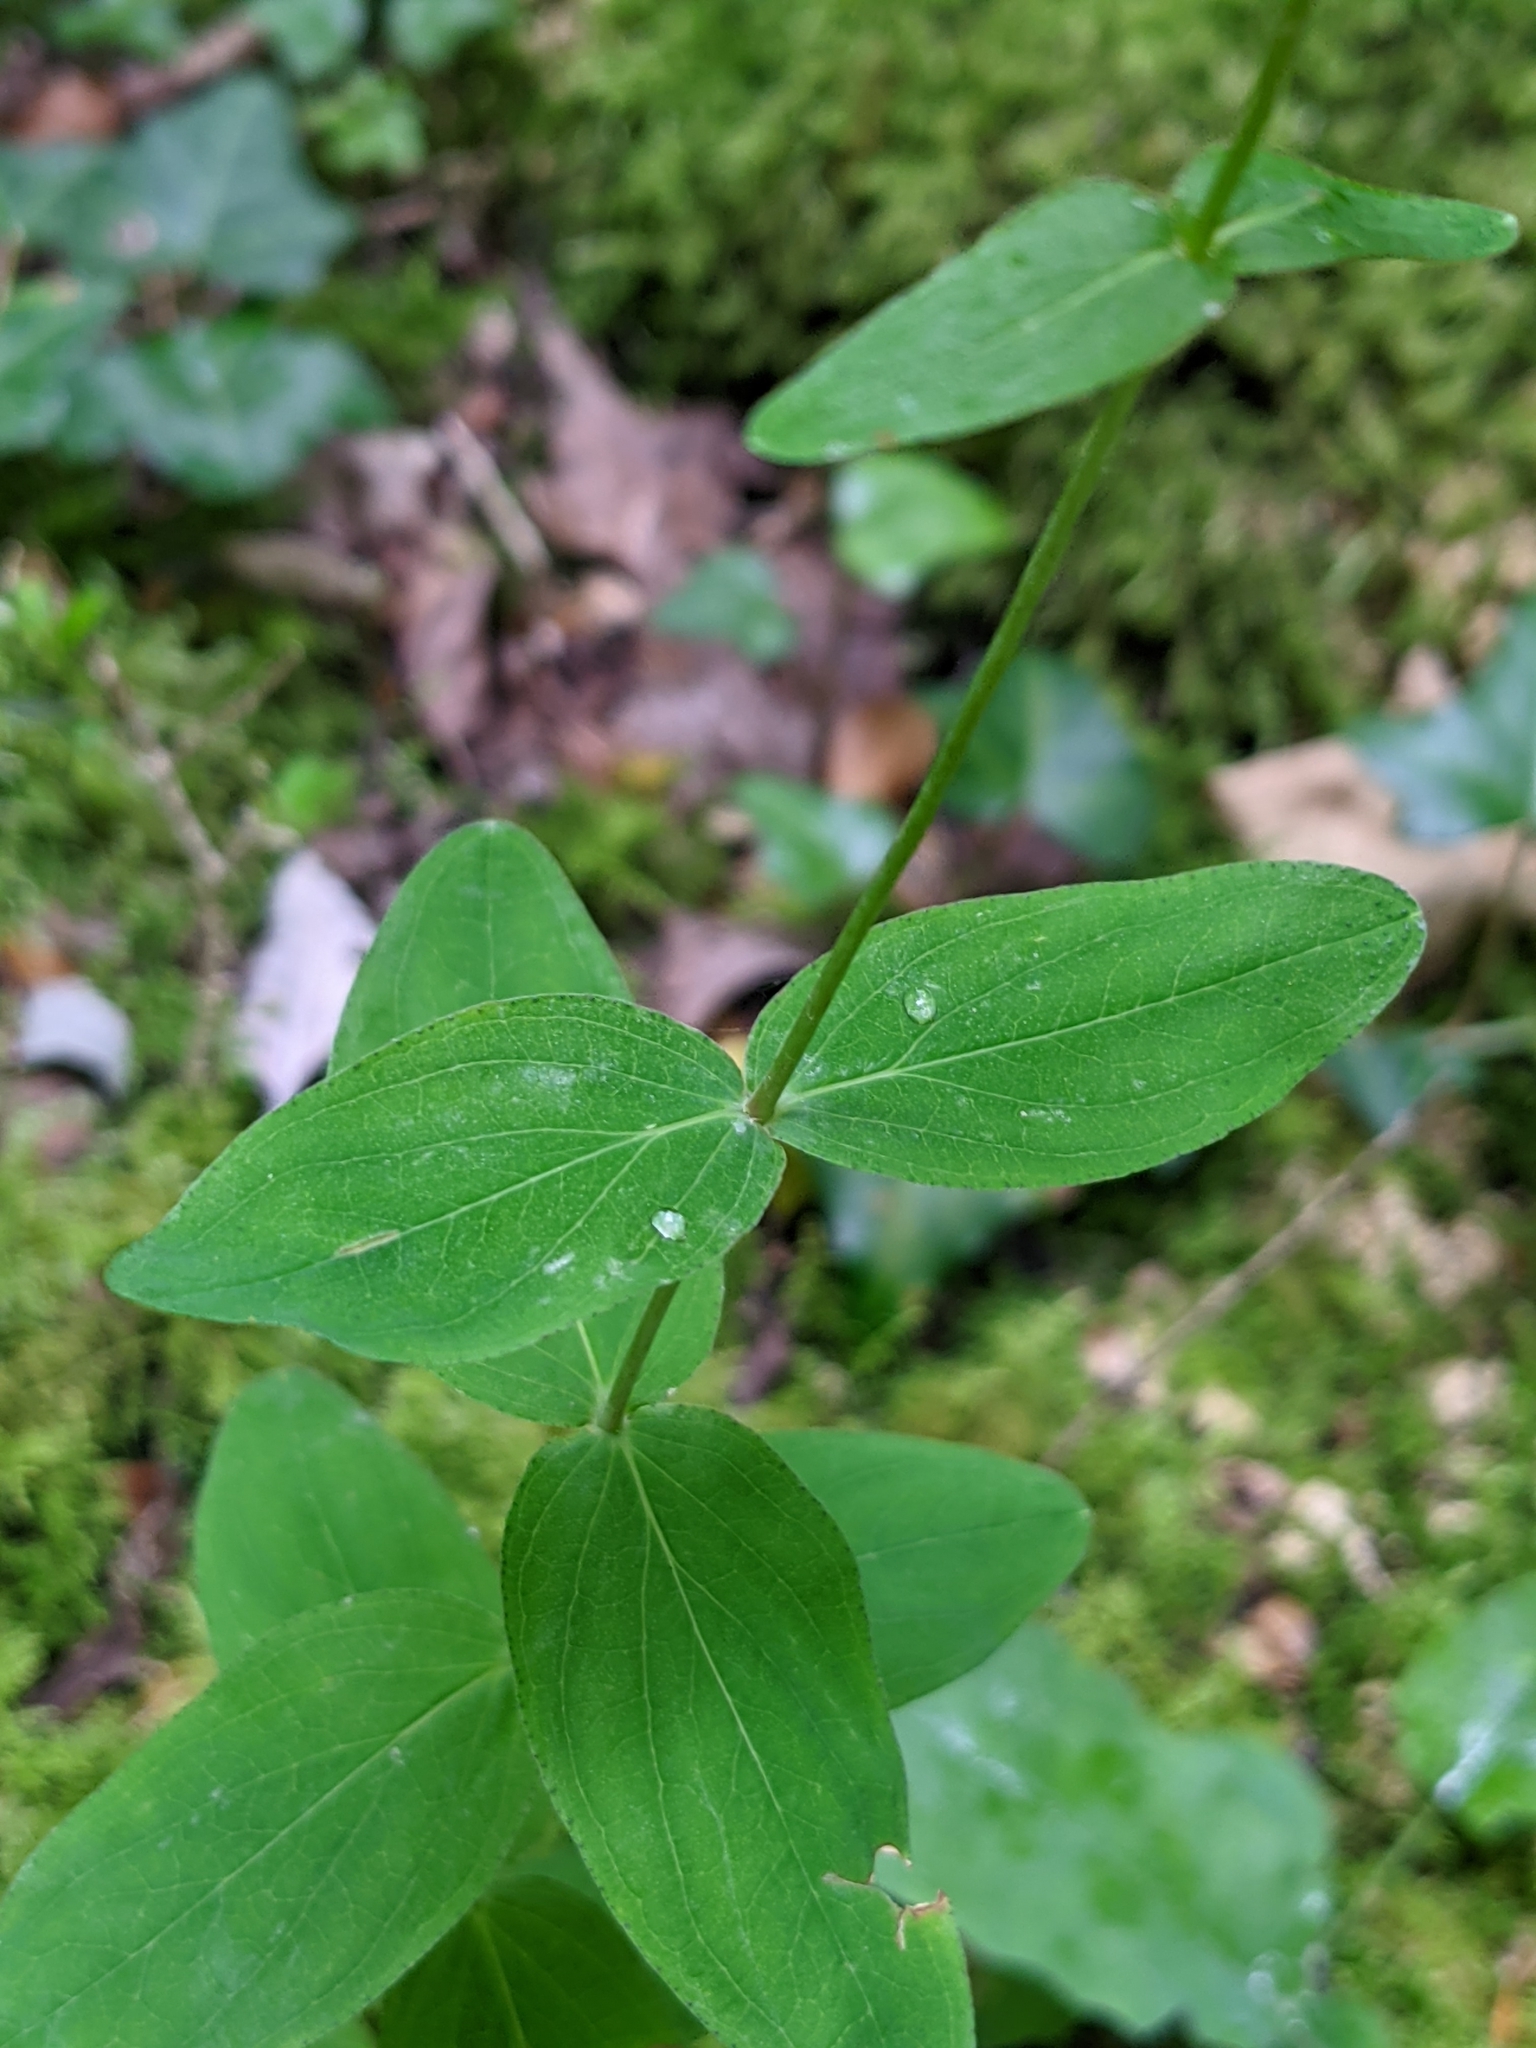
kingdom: Plantae
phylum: Tracheophyta
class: Magnoliopsida
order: Malpighiales
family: Hypericaceae
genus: Hypericum
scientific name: Hypericum montanum
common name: Pale st. john's-wort
